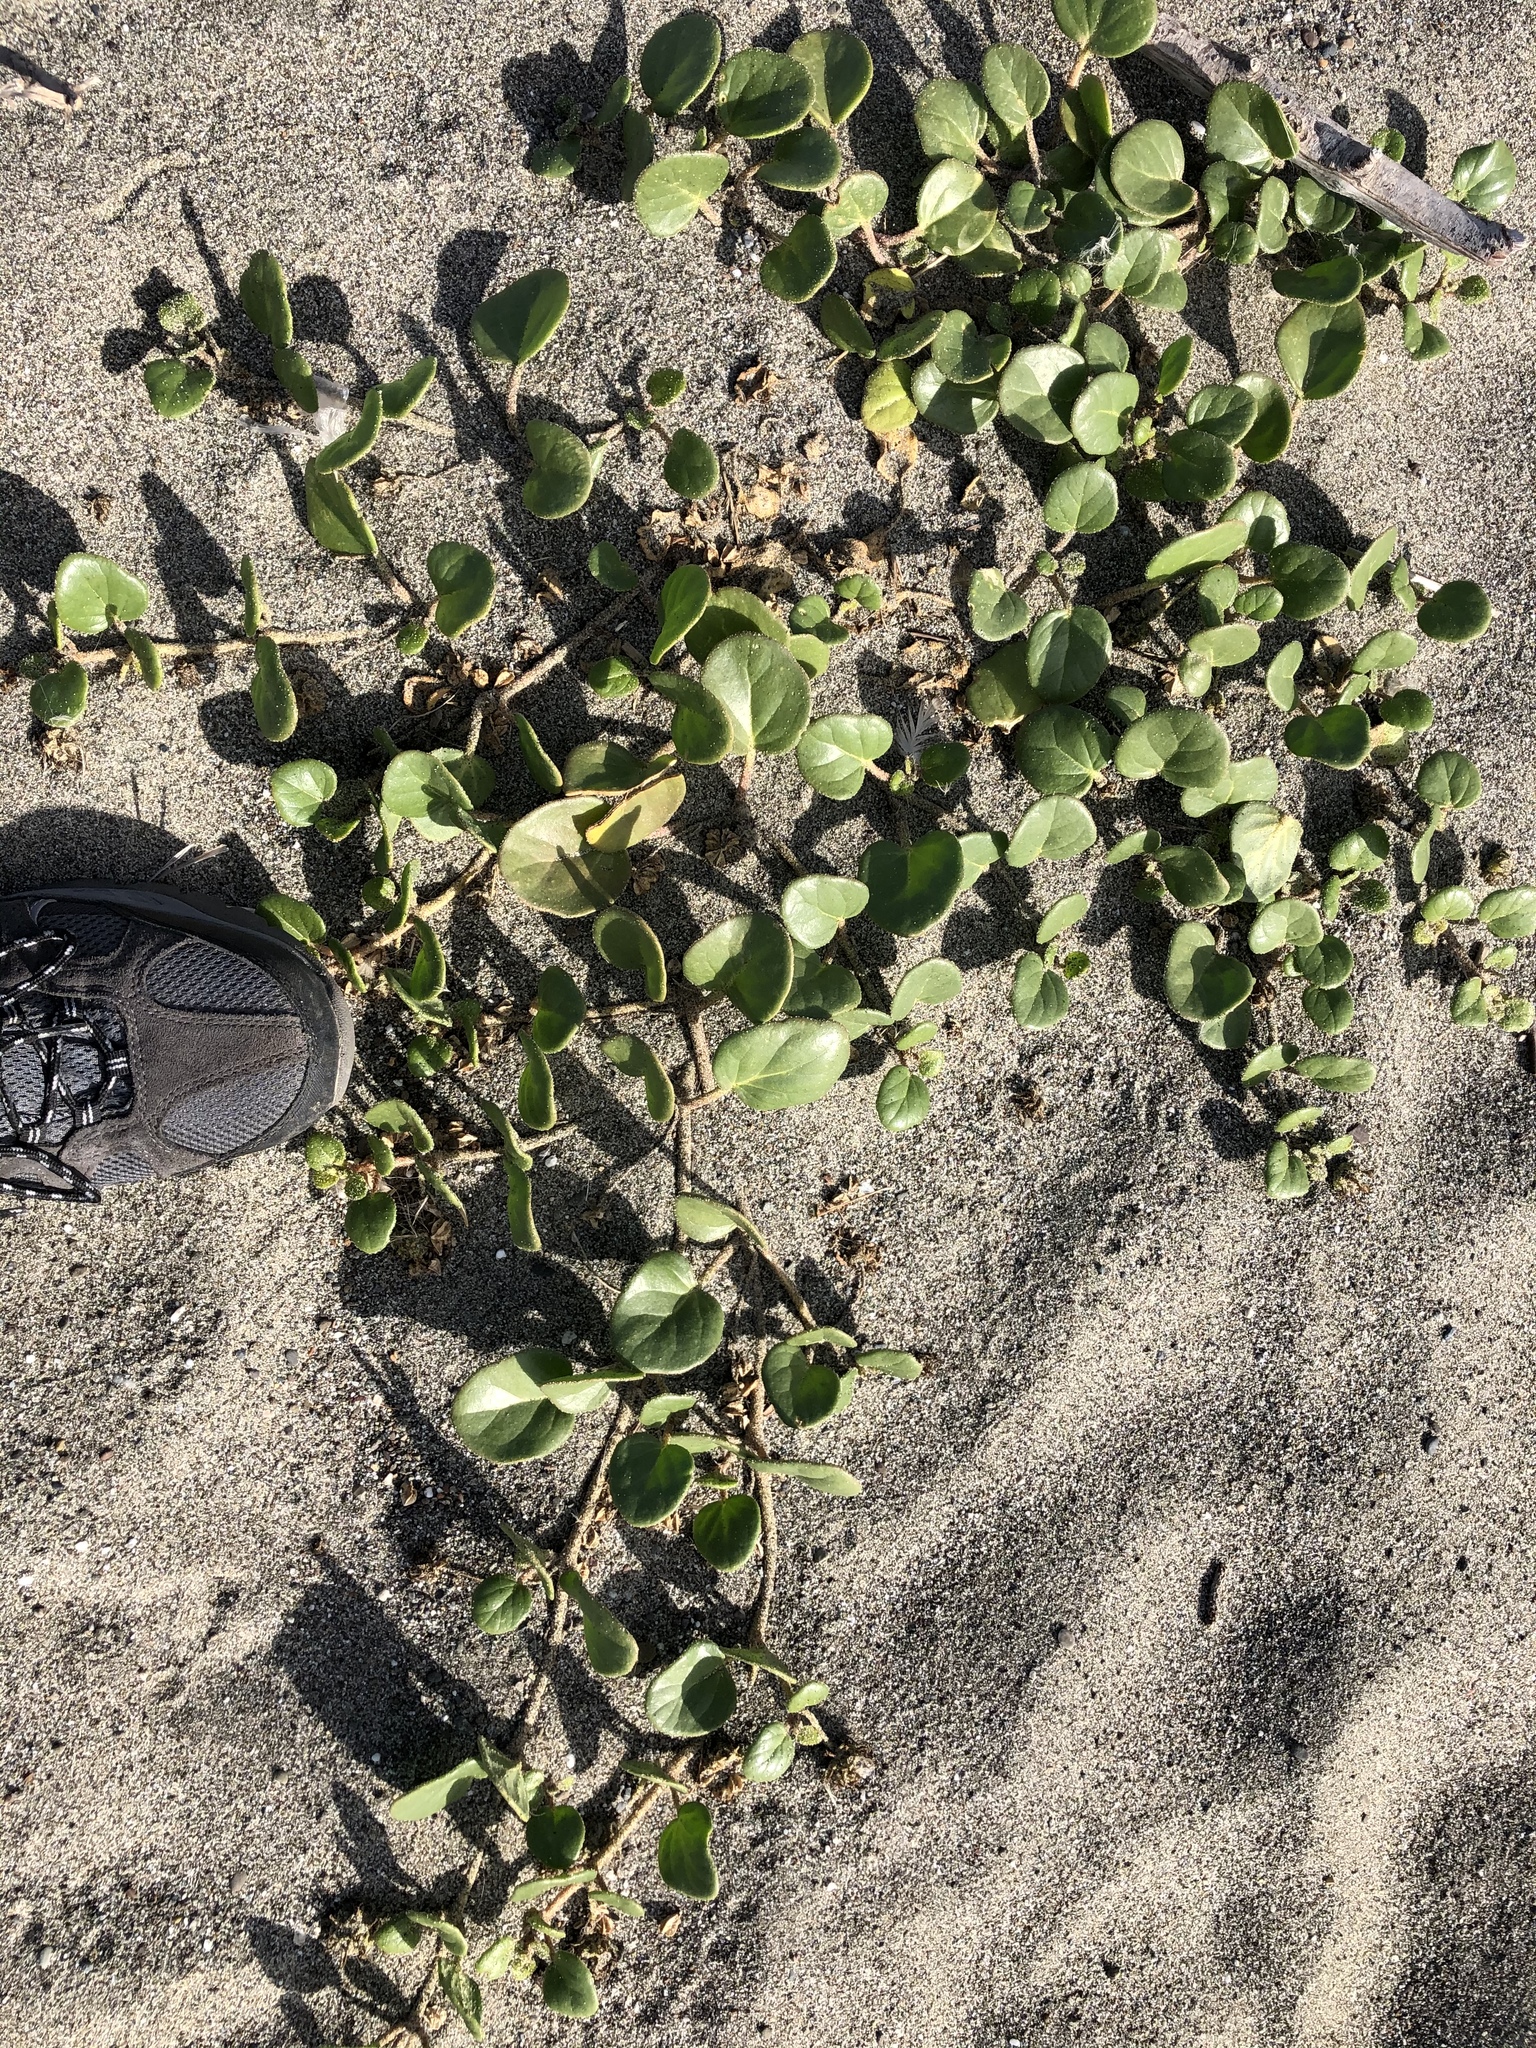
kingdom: Plantae
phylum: Tracheophyta
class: Magnoliopsida
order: Caryophyllales
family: Nyctaginaceae
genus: Abronia
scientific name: Abronia latifolia
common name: Yellow sand-verbena
